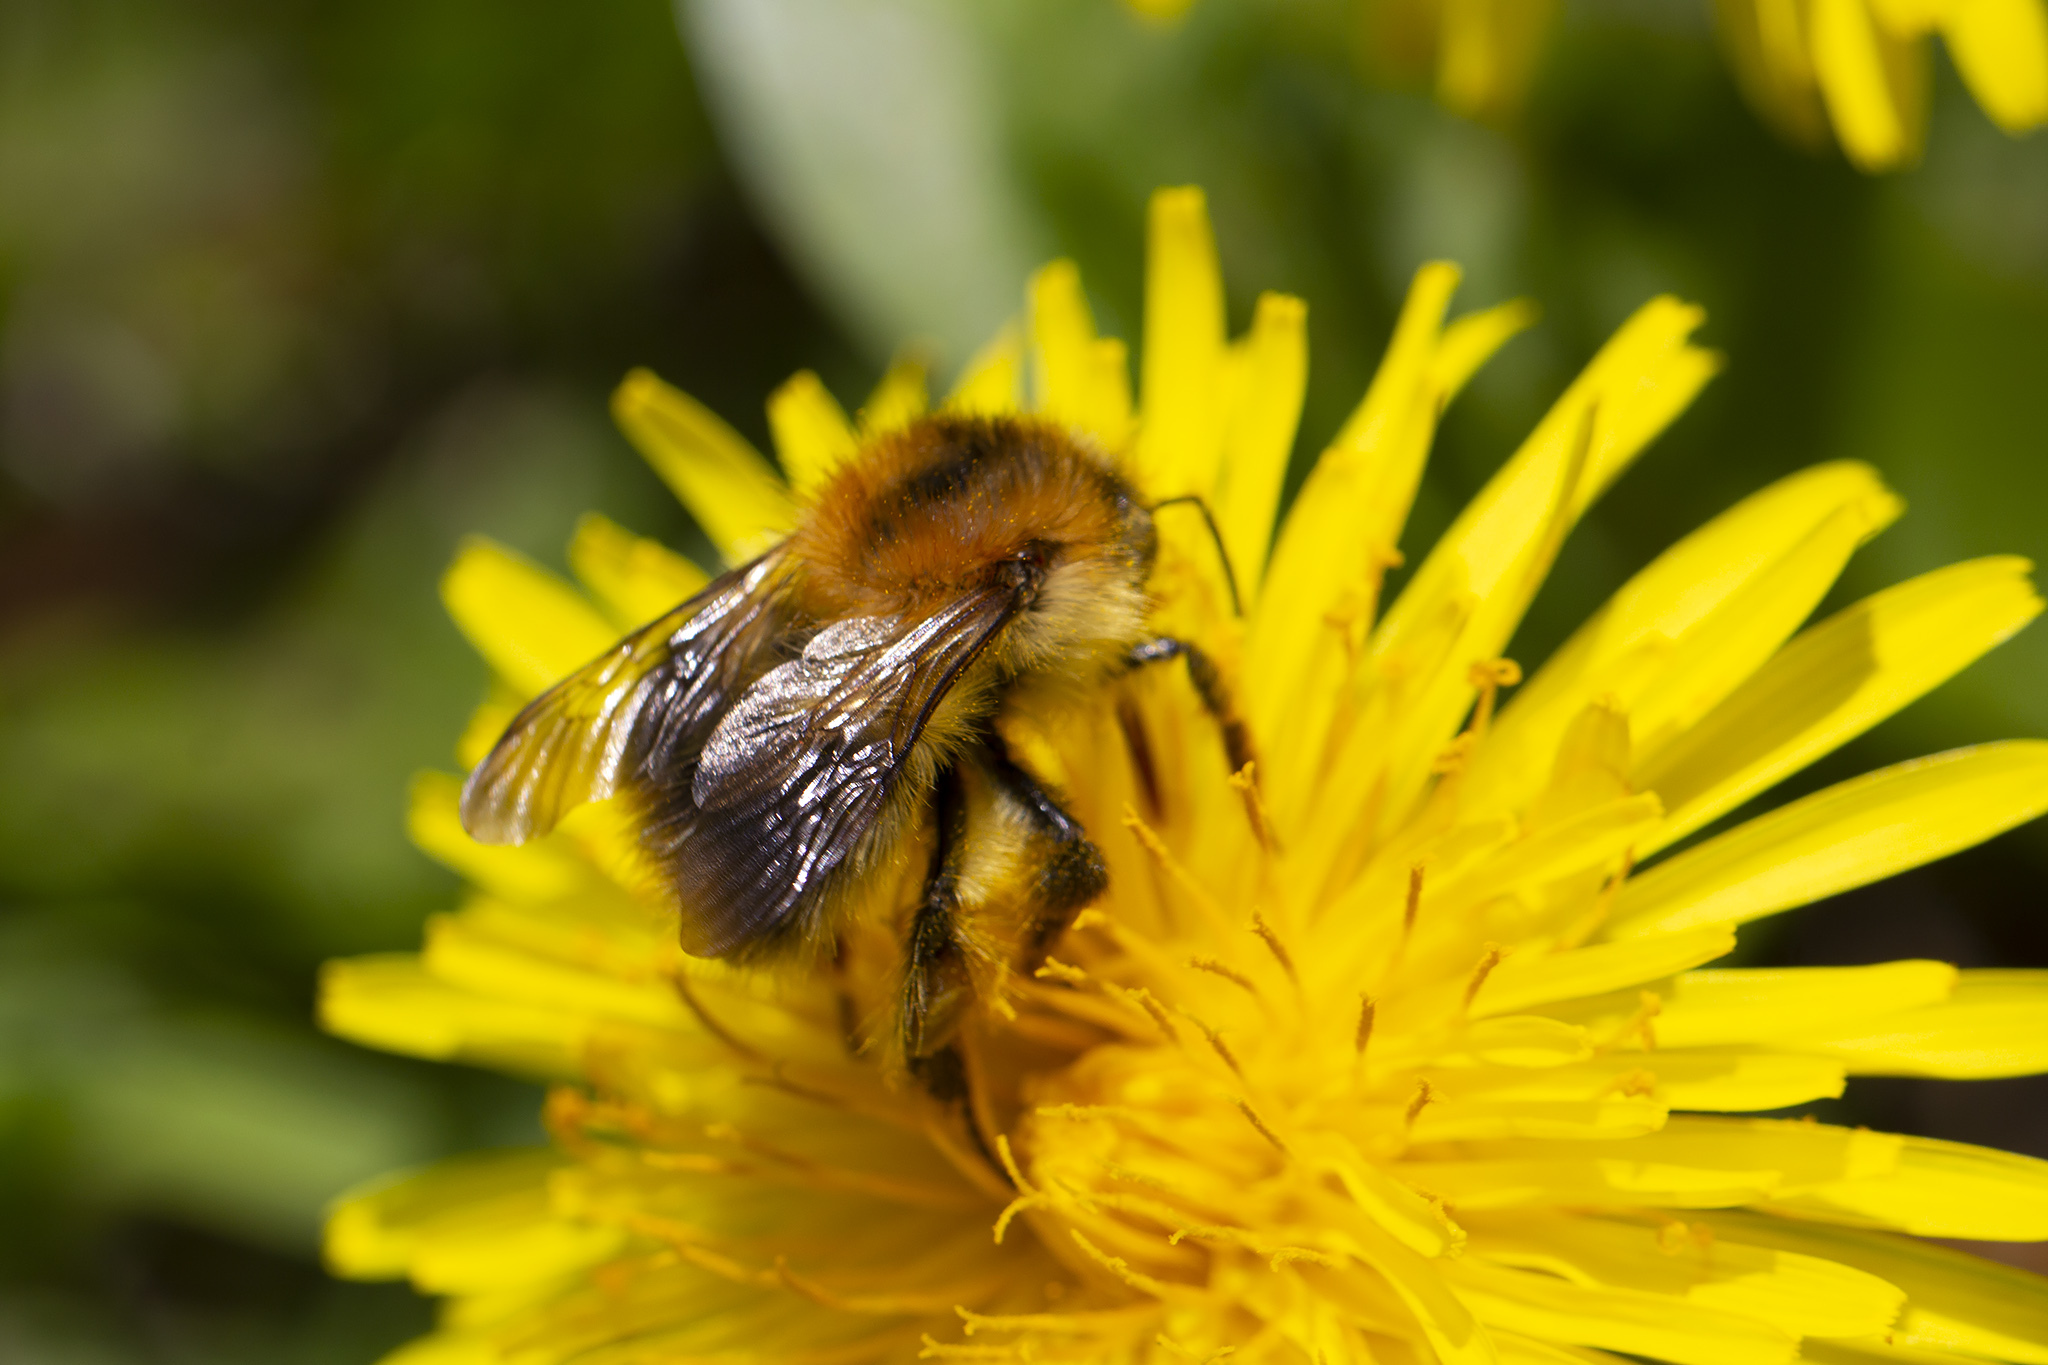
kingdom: Animalia
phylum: Arthropoda
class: Insecta
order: Hymenoptera
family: Apidae
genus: Bombus
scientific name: Bombus pascuorum
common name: Common carder bee
